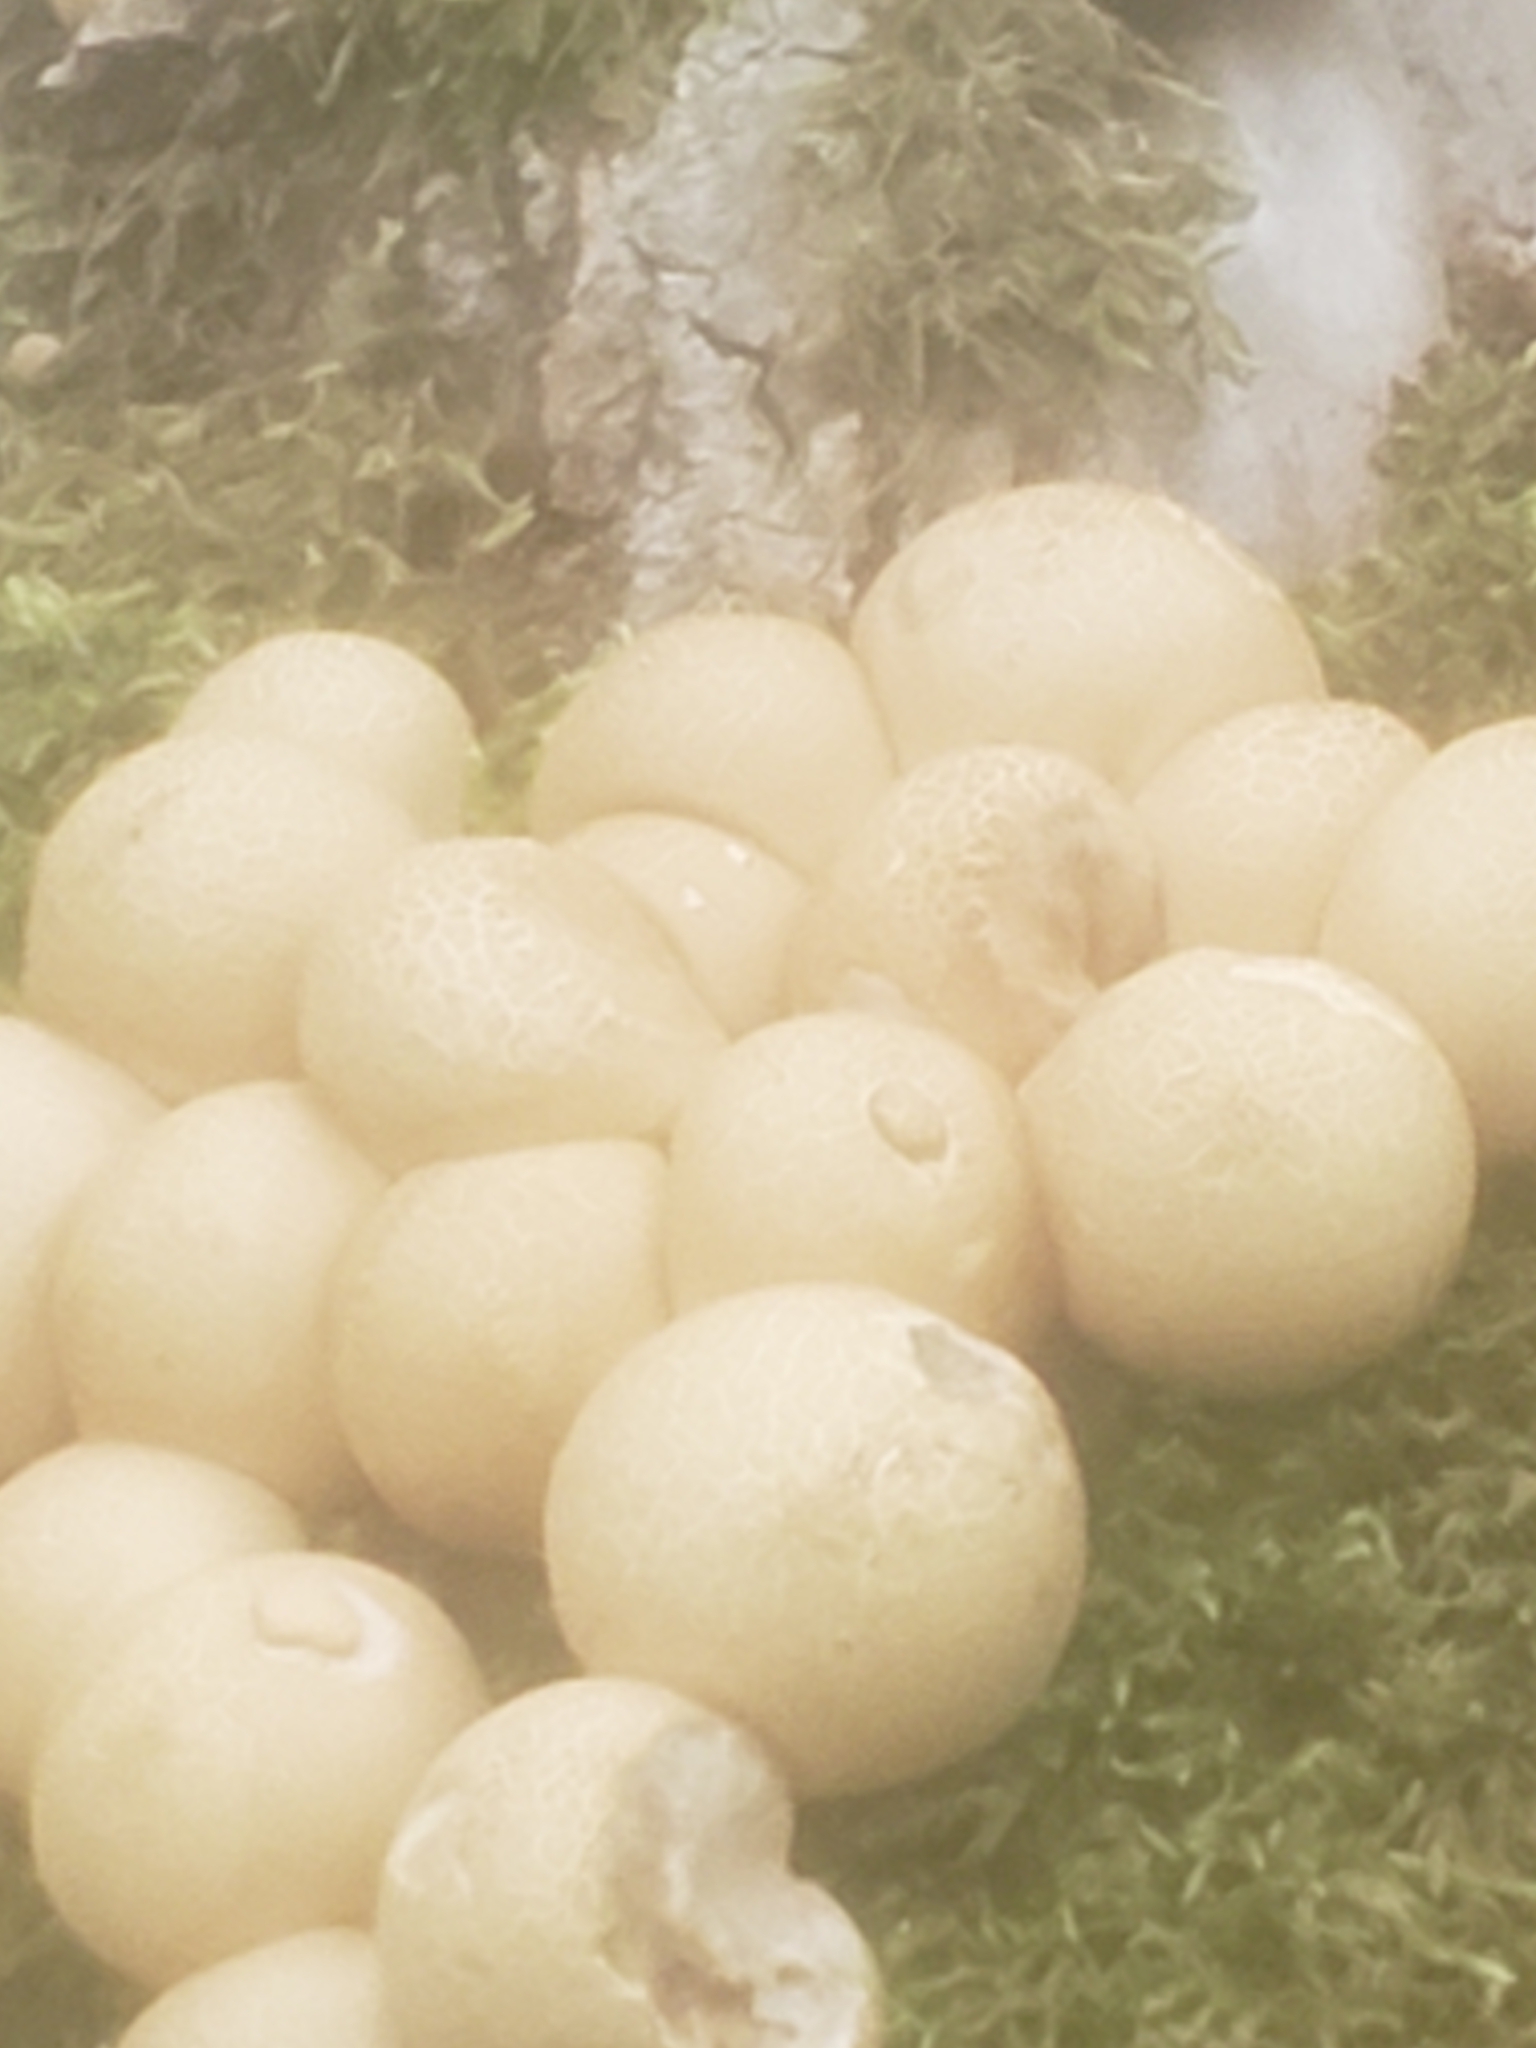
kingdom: Fungi
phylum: Basidiomycota
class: Agaricomycetes
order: Agaricales
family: Lycoperdaceae
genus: Apioperdon
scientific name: Apioperdon pyriforme
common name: Pear-shaped puffball
